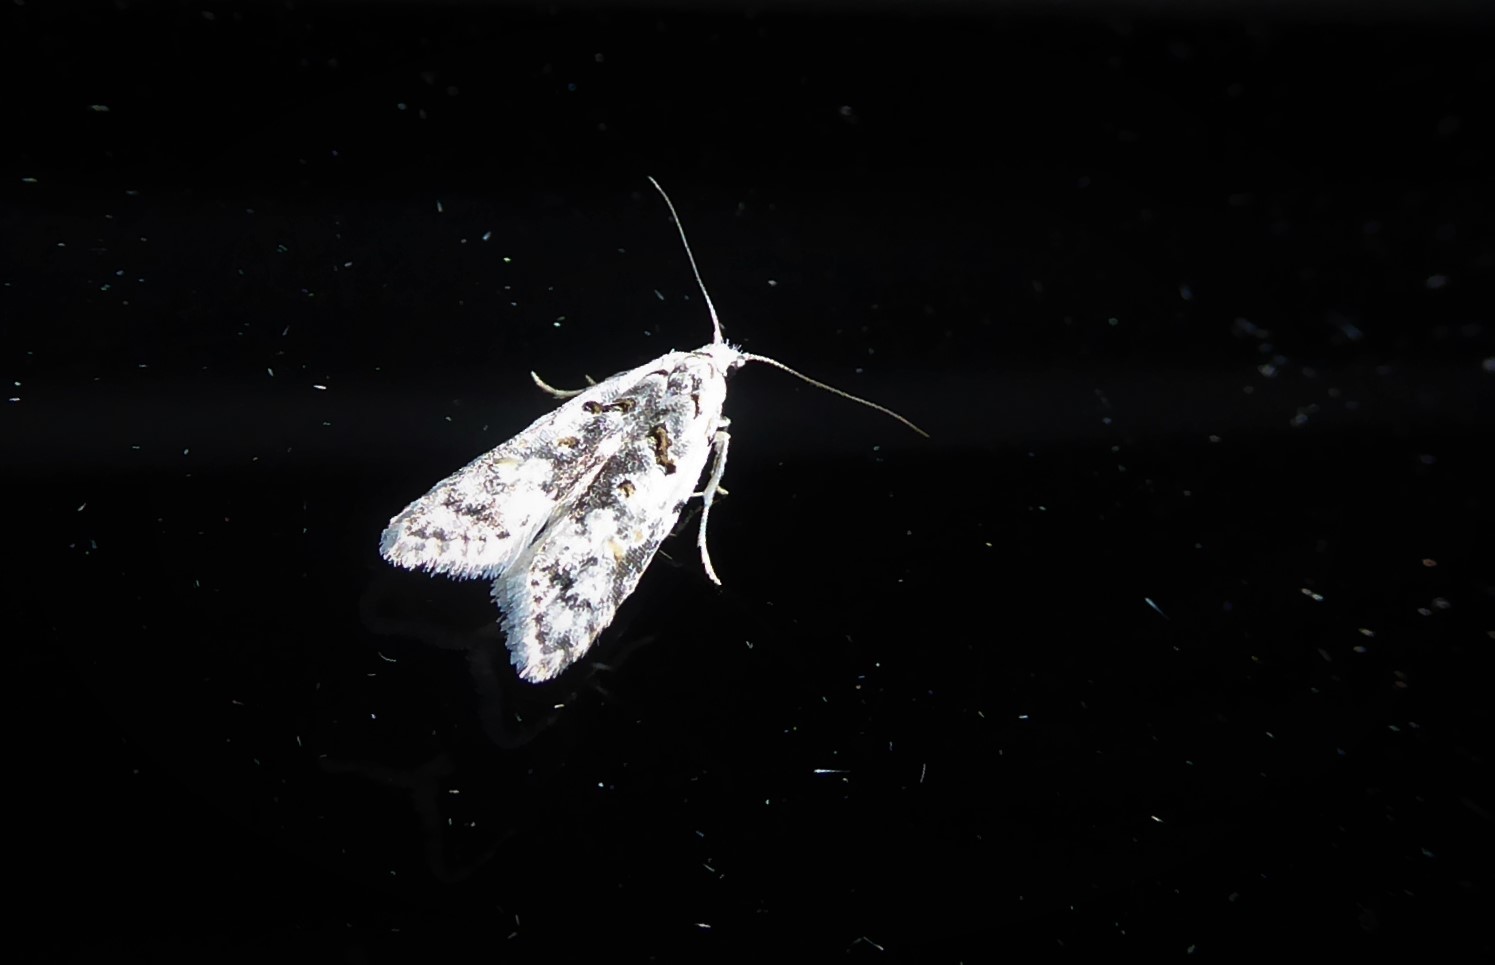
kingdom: Animalia
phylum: Arthropoda
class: Insecta
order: Lepidoptera
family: Carposinidae
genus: Carposina
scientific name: Carposina
